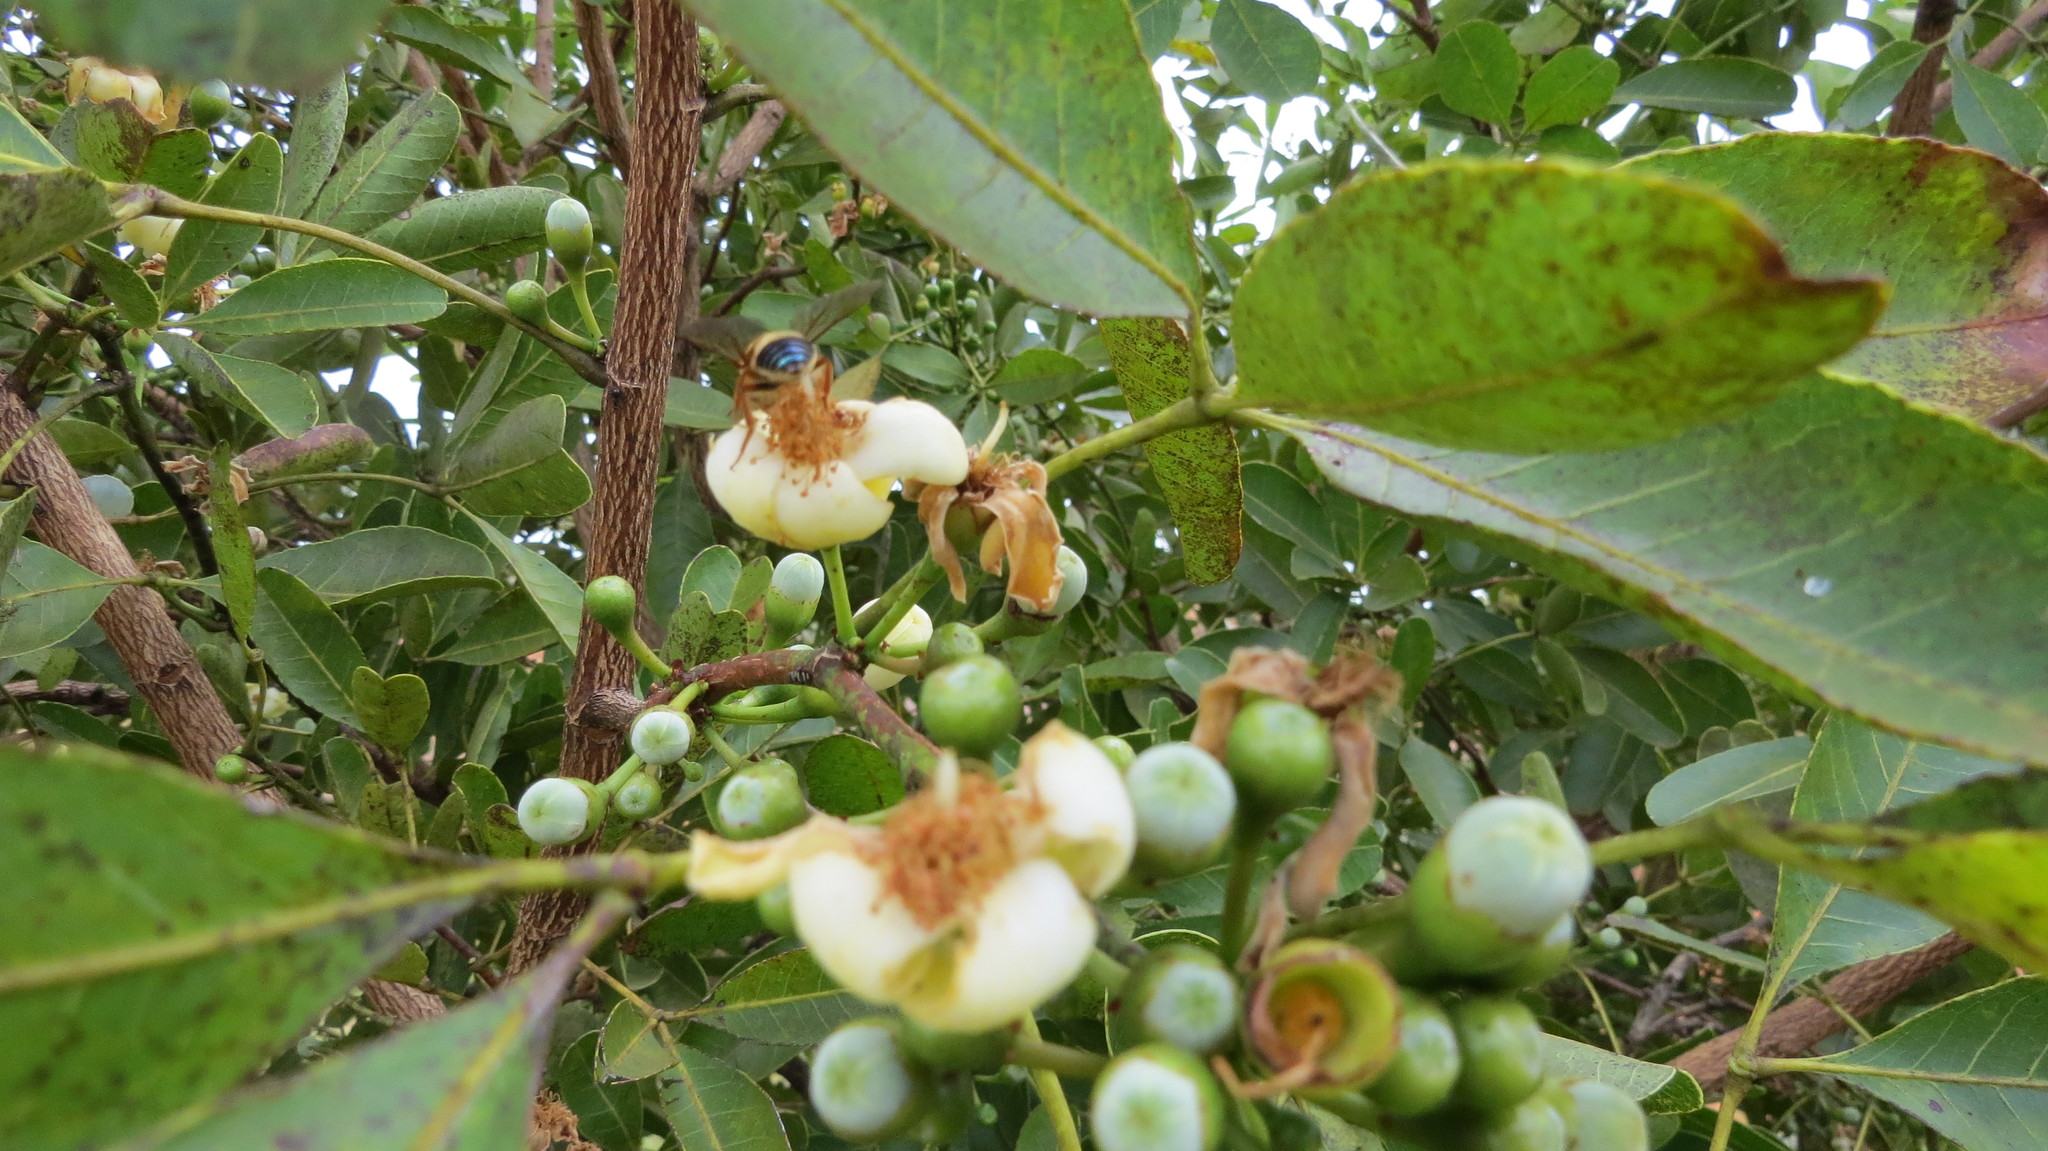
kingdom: Animalia
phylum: Arthropoda
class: Insecta
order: Hymenoptera
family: Andrenidae
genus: Oxaea
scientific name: Oxaea flavescens
